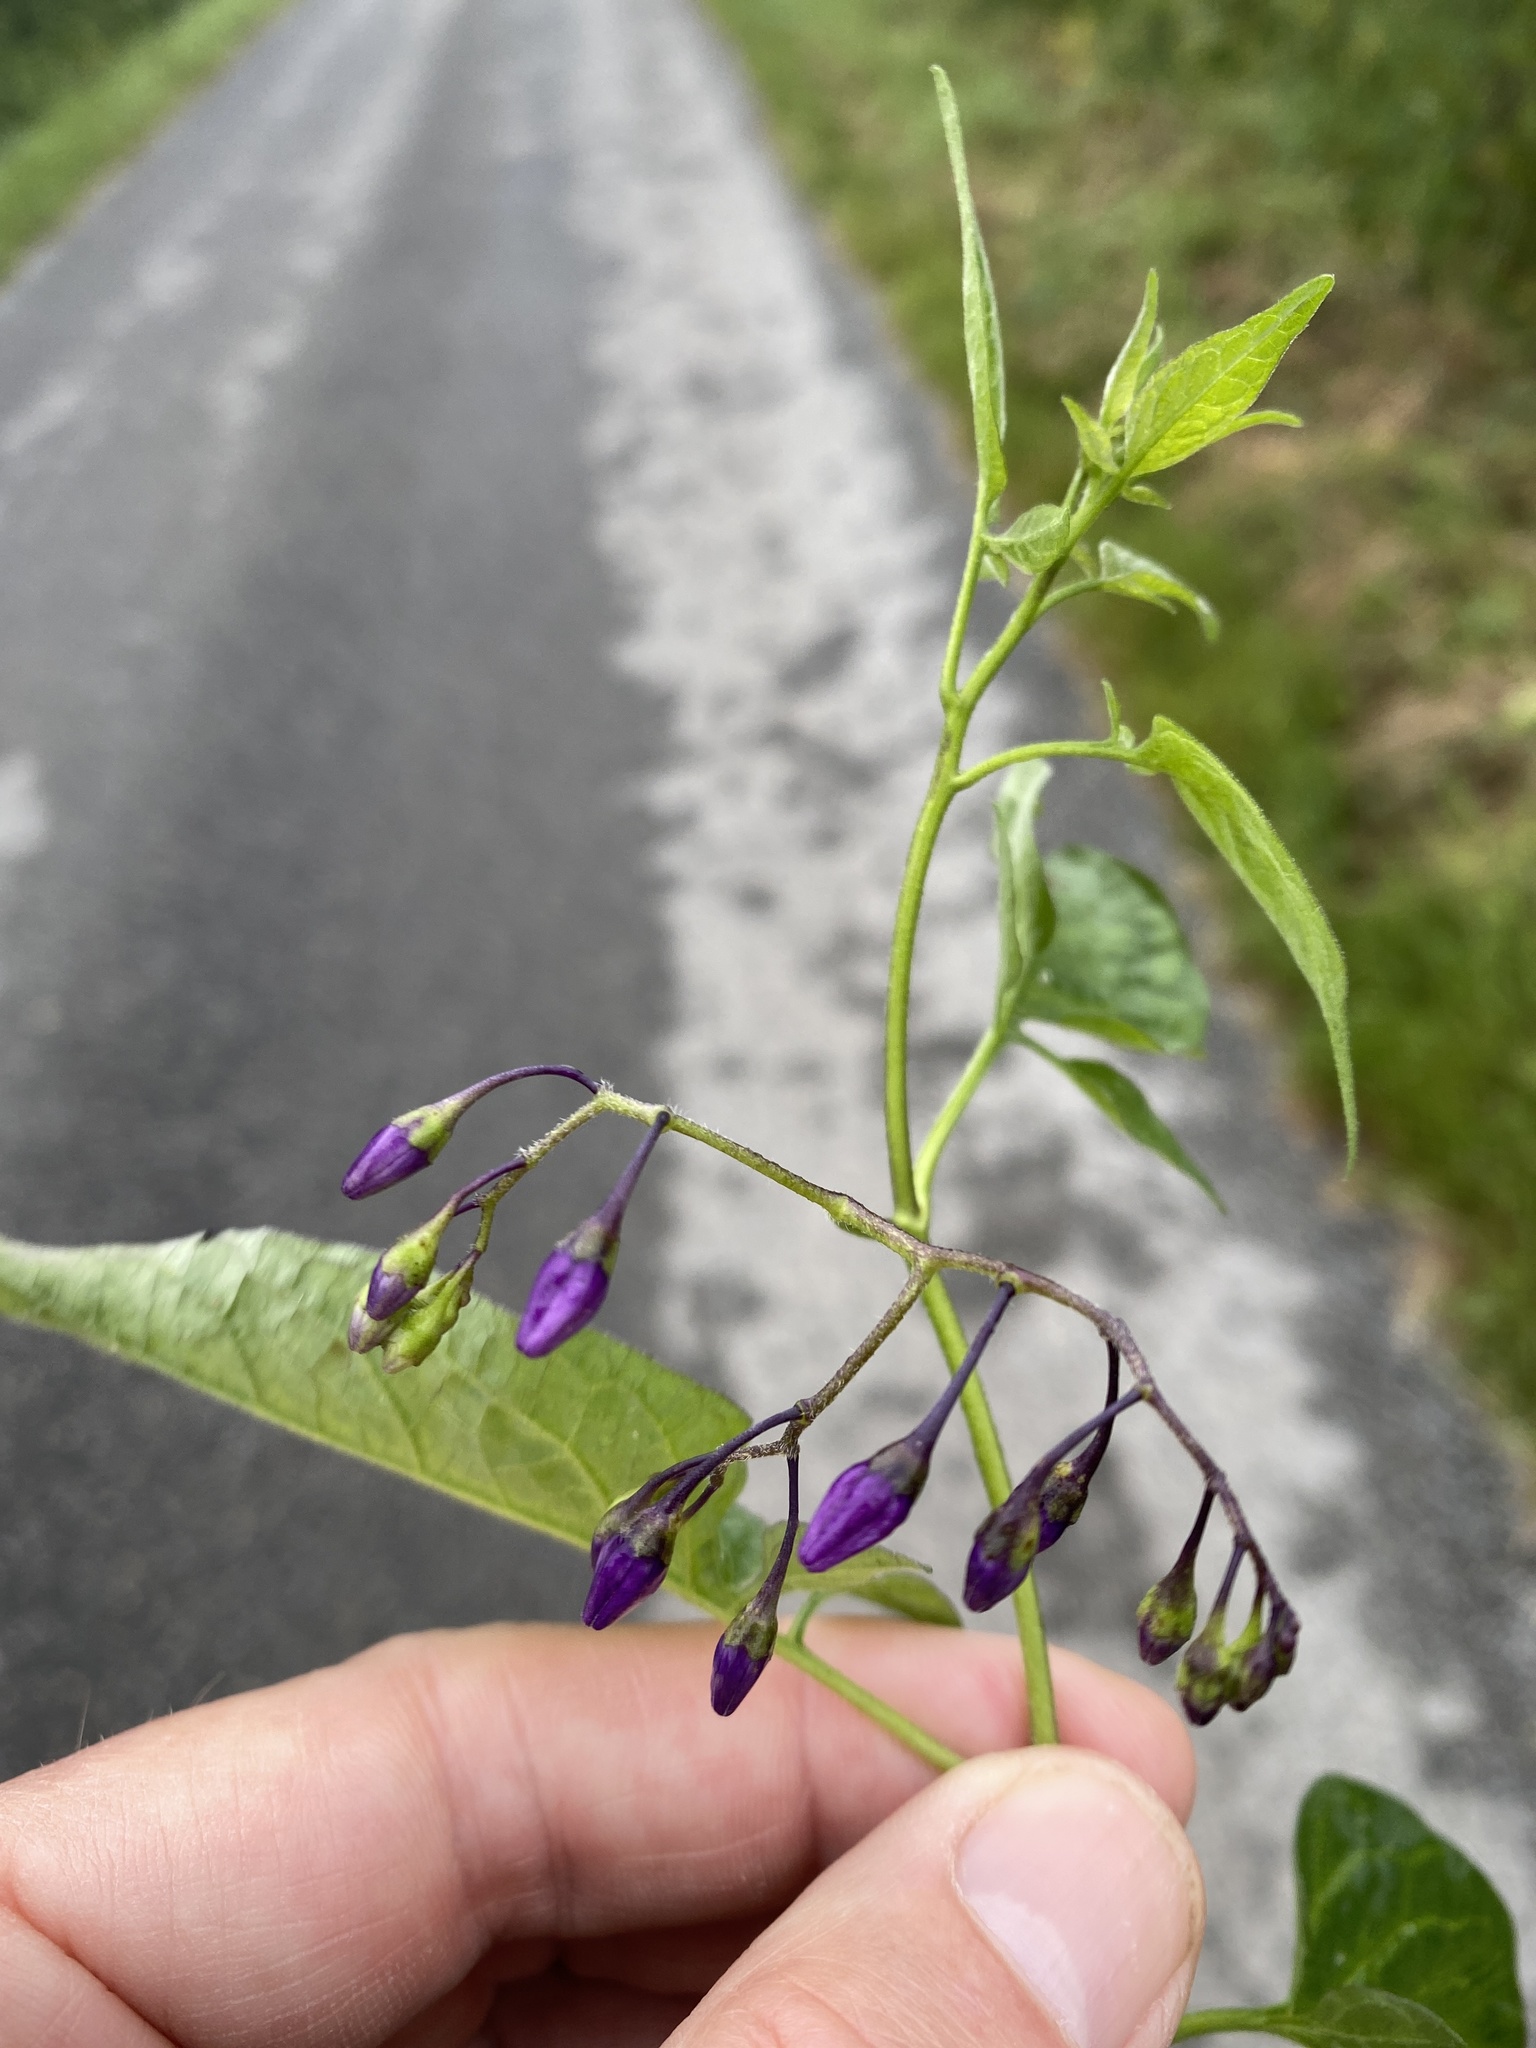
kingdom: Plantae
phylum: Tracheophyta
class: Magnoliopsida
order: Solanales
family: Solanaceae
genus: Solanum
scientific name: Solanum dulcamara
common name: Climbing nightshade
